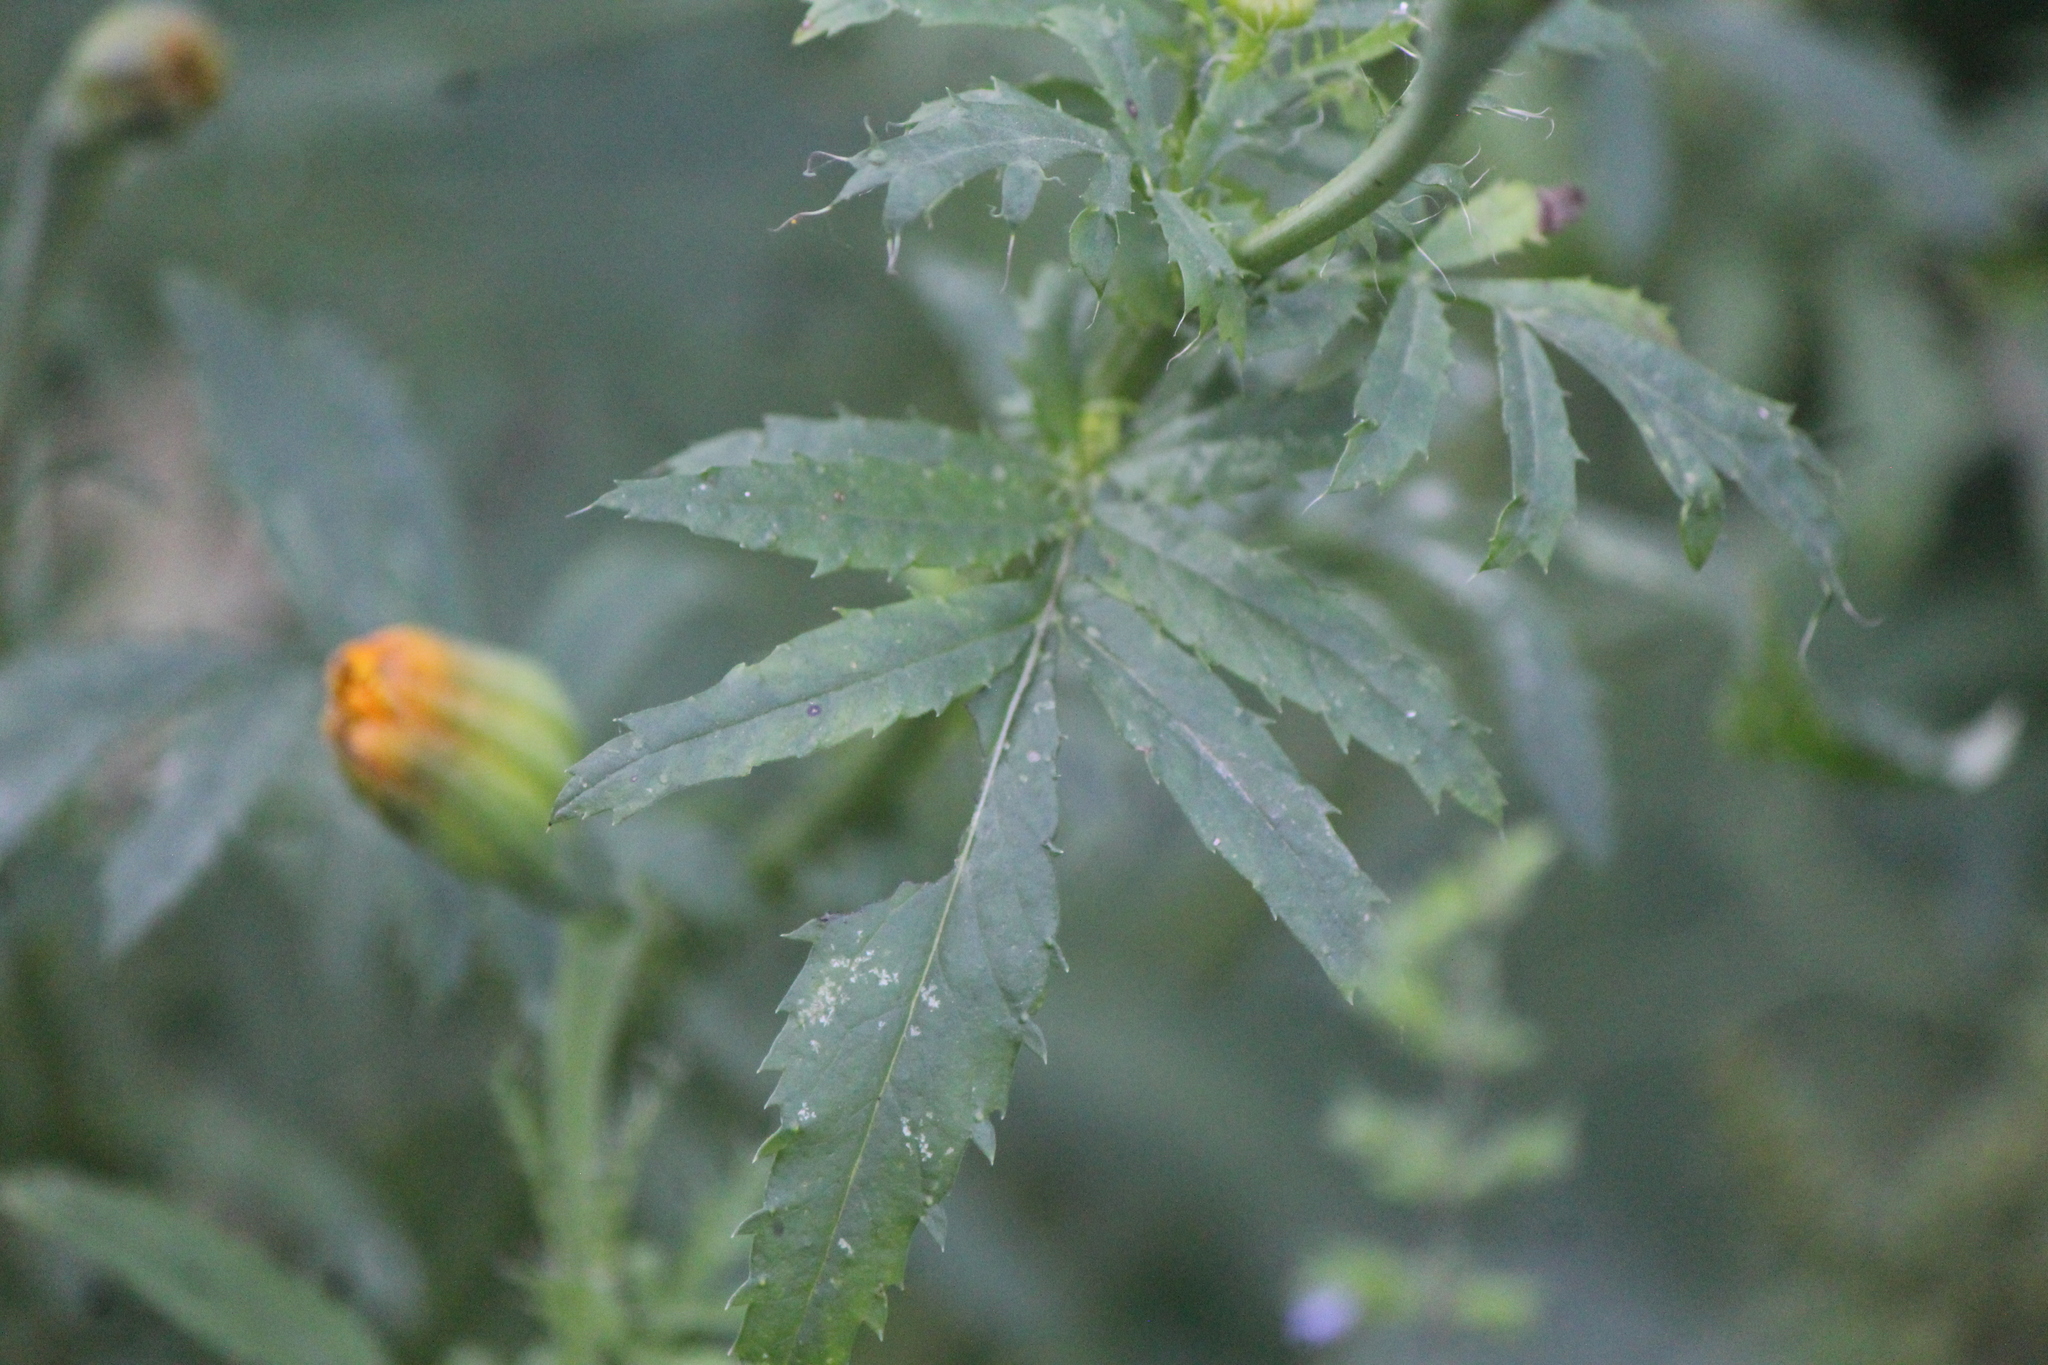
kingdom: Plantae
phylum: Tracheophyta
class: Magnoliopsida
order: Asterales
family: Asteraceae
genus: Tagetes
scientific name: Tagetes erecta
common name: African marigold
